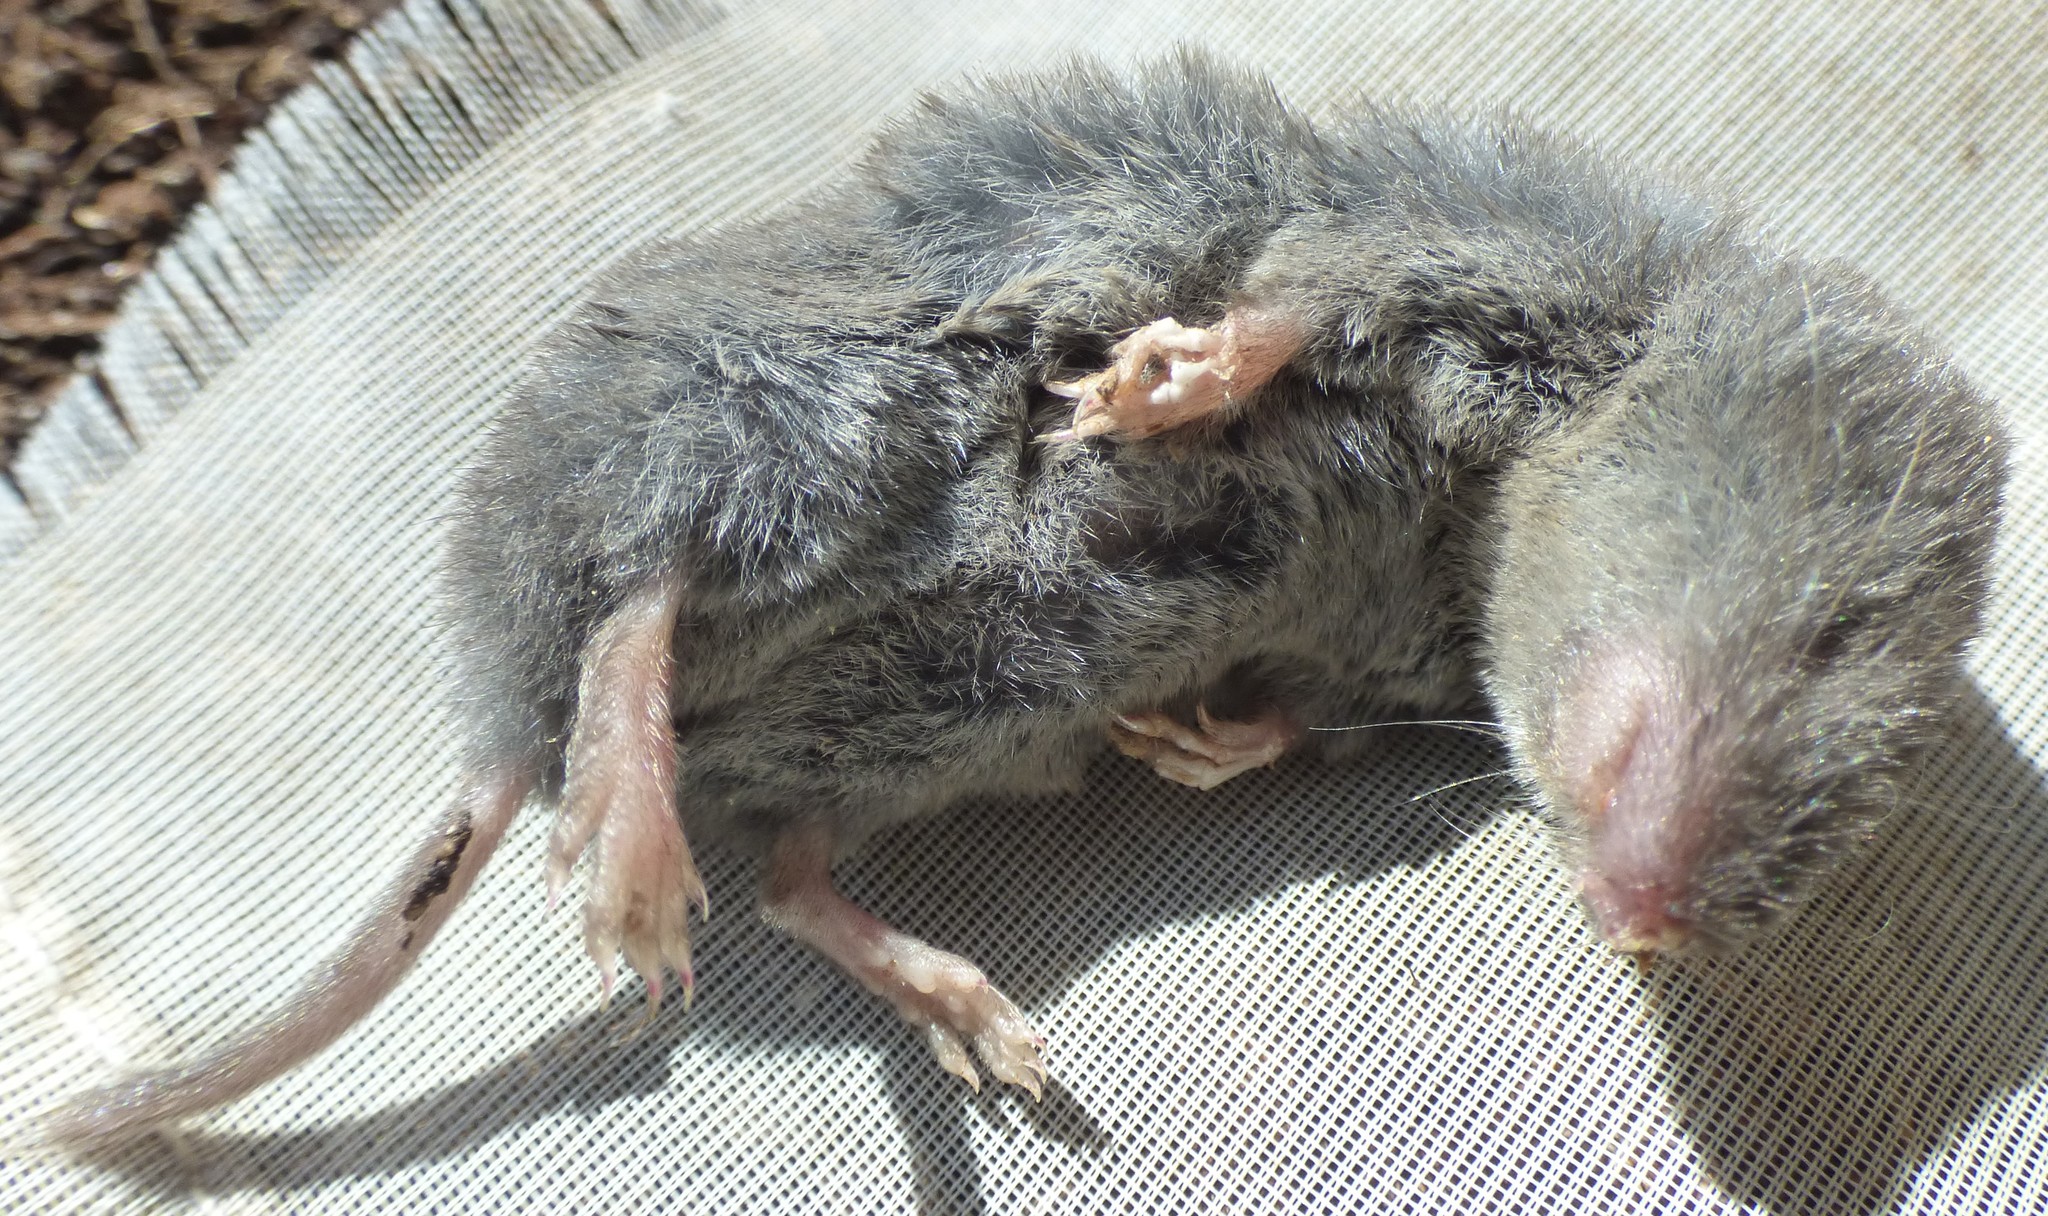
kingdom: Animalia
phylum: Chordata
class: Mammalia
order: Soricomorpha
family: Soricidae
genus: Blarina
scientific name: Blarina carolinensis
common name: Southern short-tailed shrew
